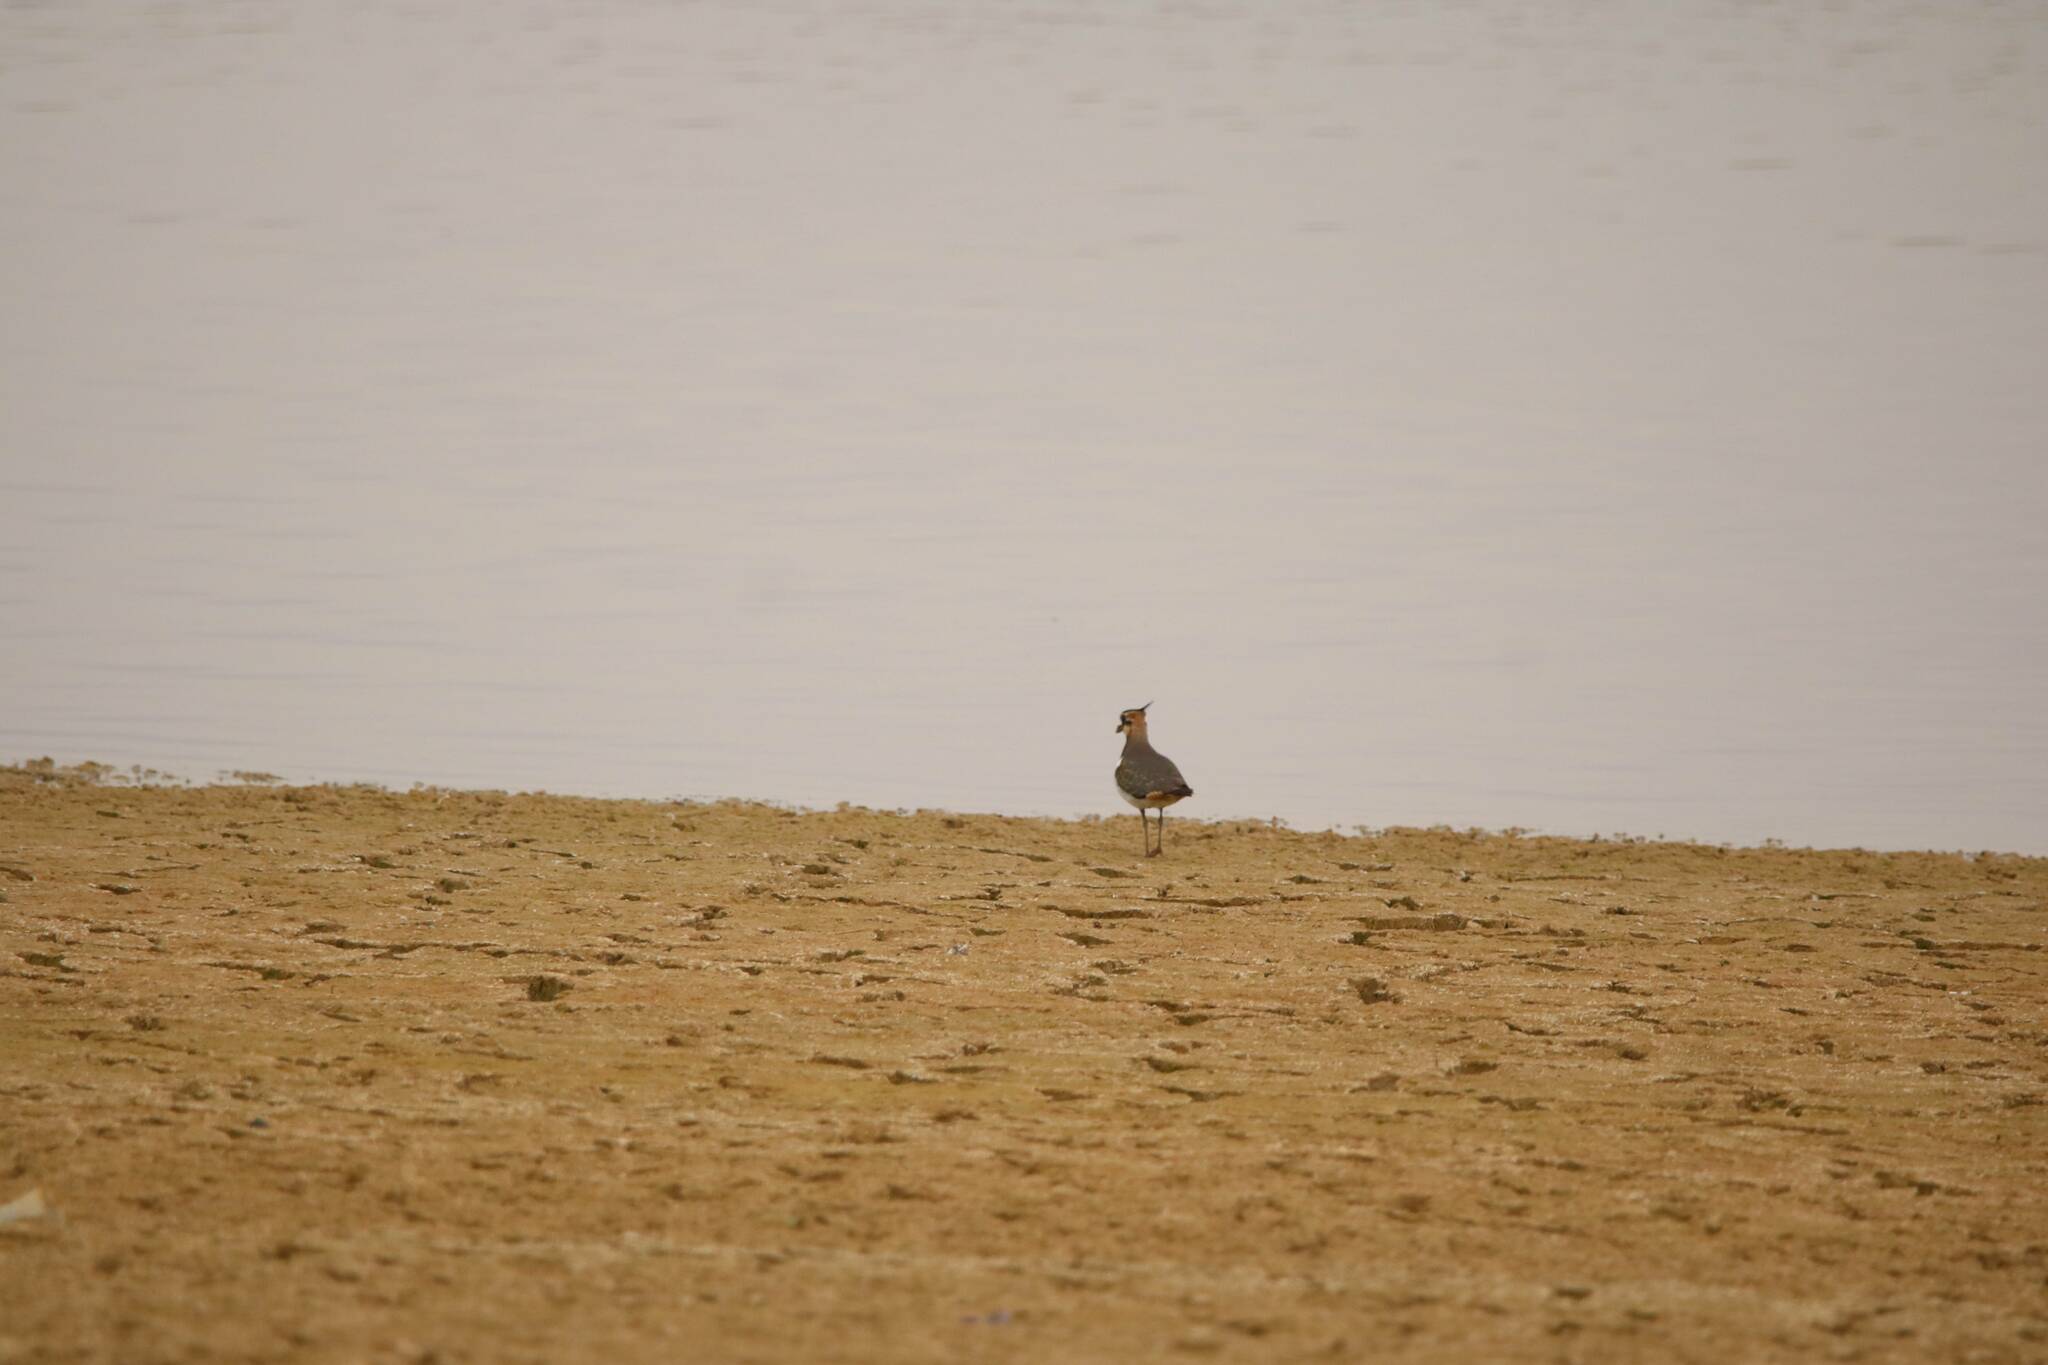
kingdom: Animalia
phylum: Chordata
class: Aves
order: Charadriiformes
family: Charadriidae
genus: Vanellus
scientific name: Vanellus vanellus
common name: Northern lapwing
